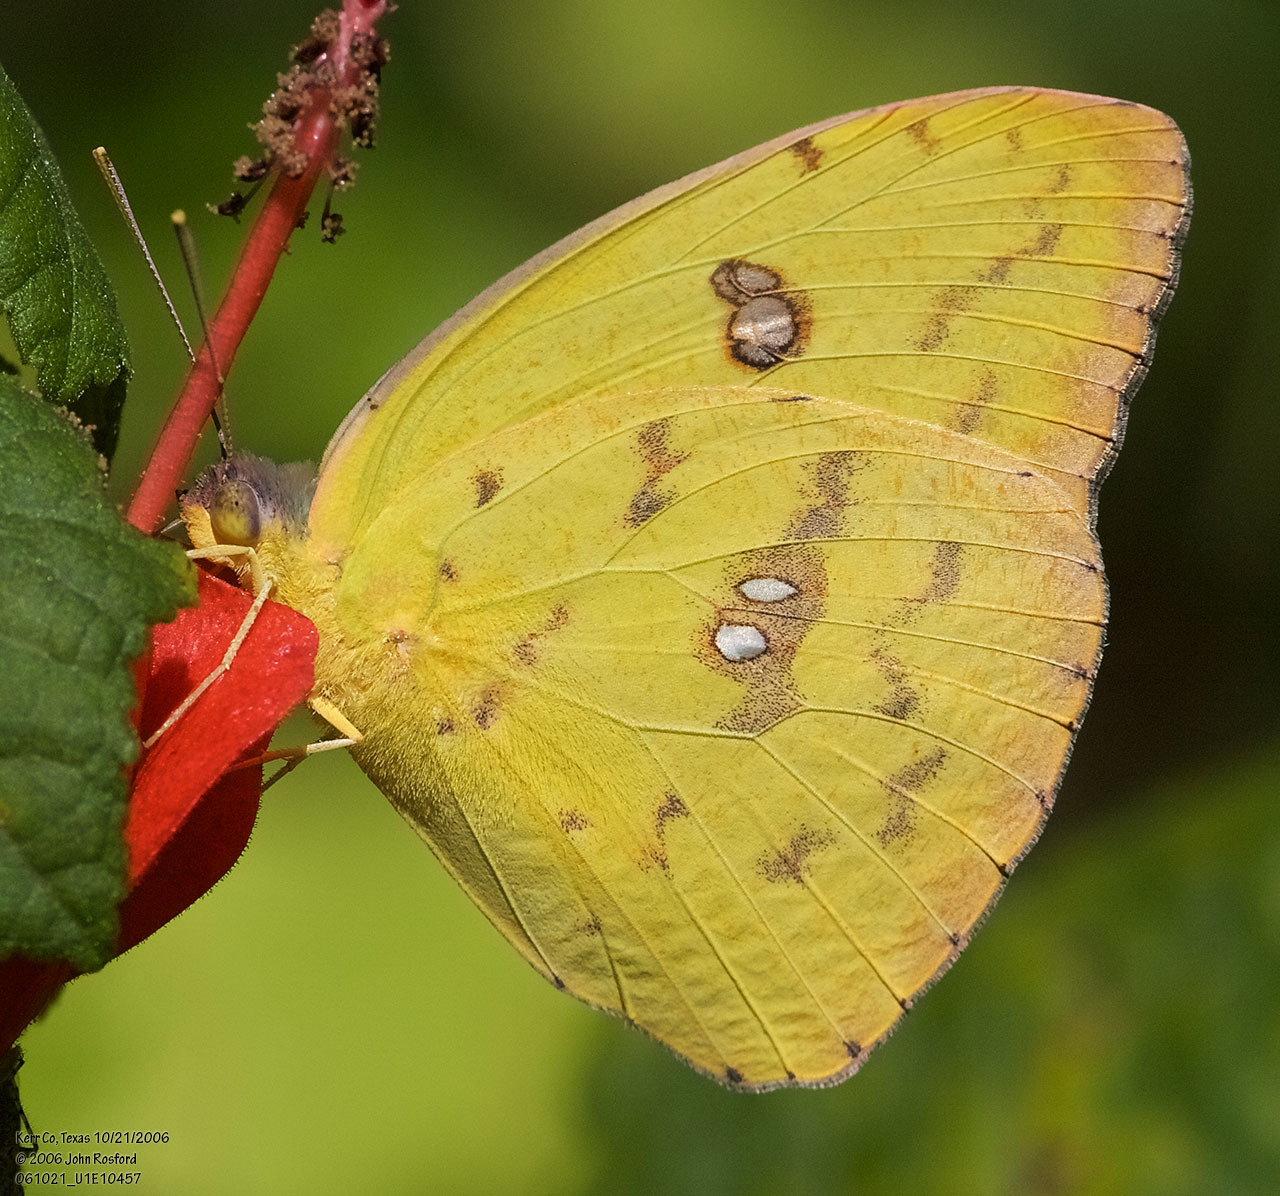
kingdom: Animalia
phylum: Arthropoda
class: Insecta
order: Lepidoptera
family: Pieridae
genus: Phoebis
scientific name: Phoebis sennae
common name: Cloudless sulphur
